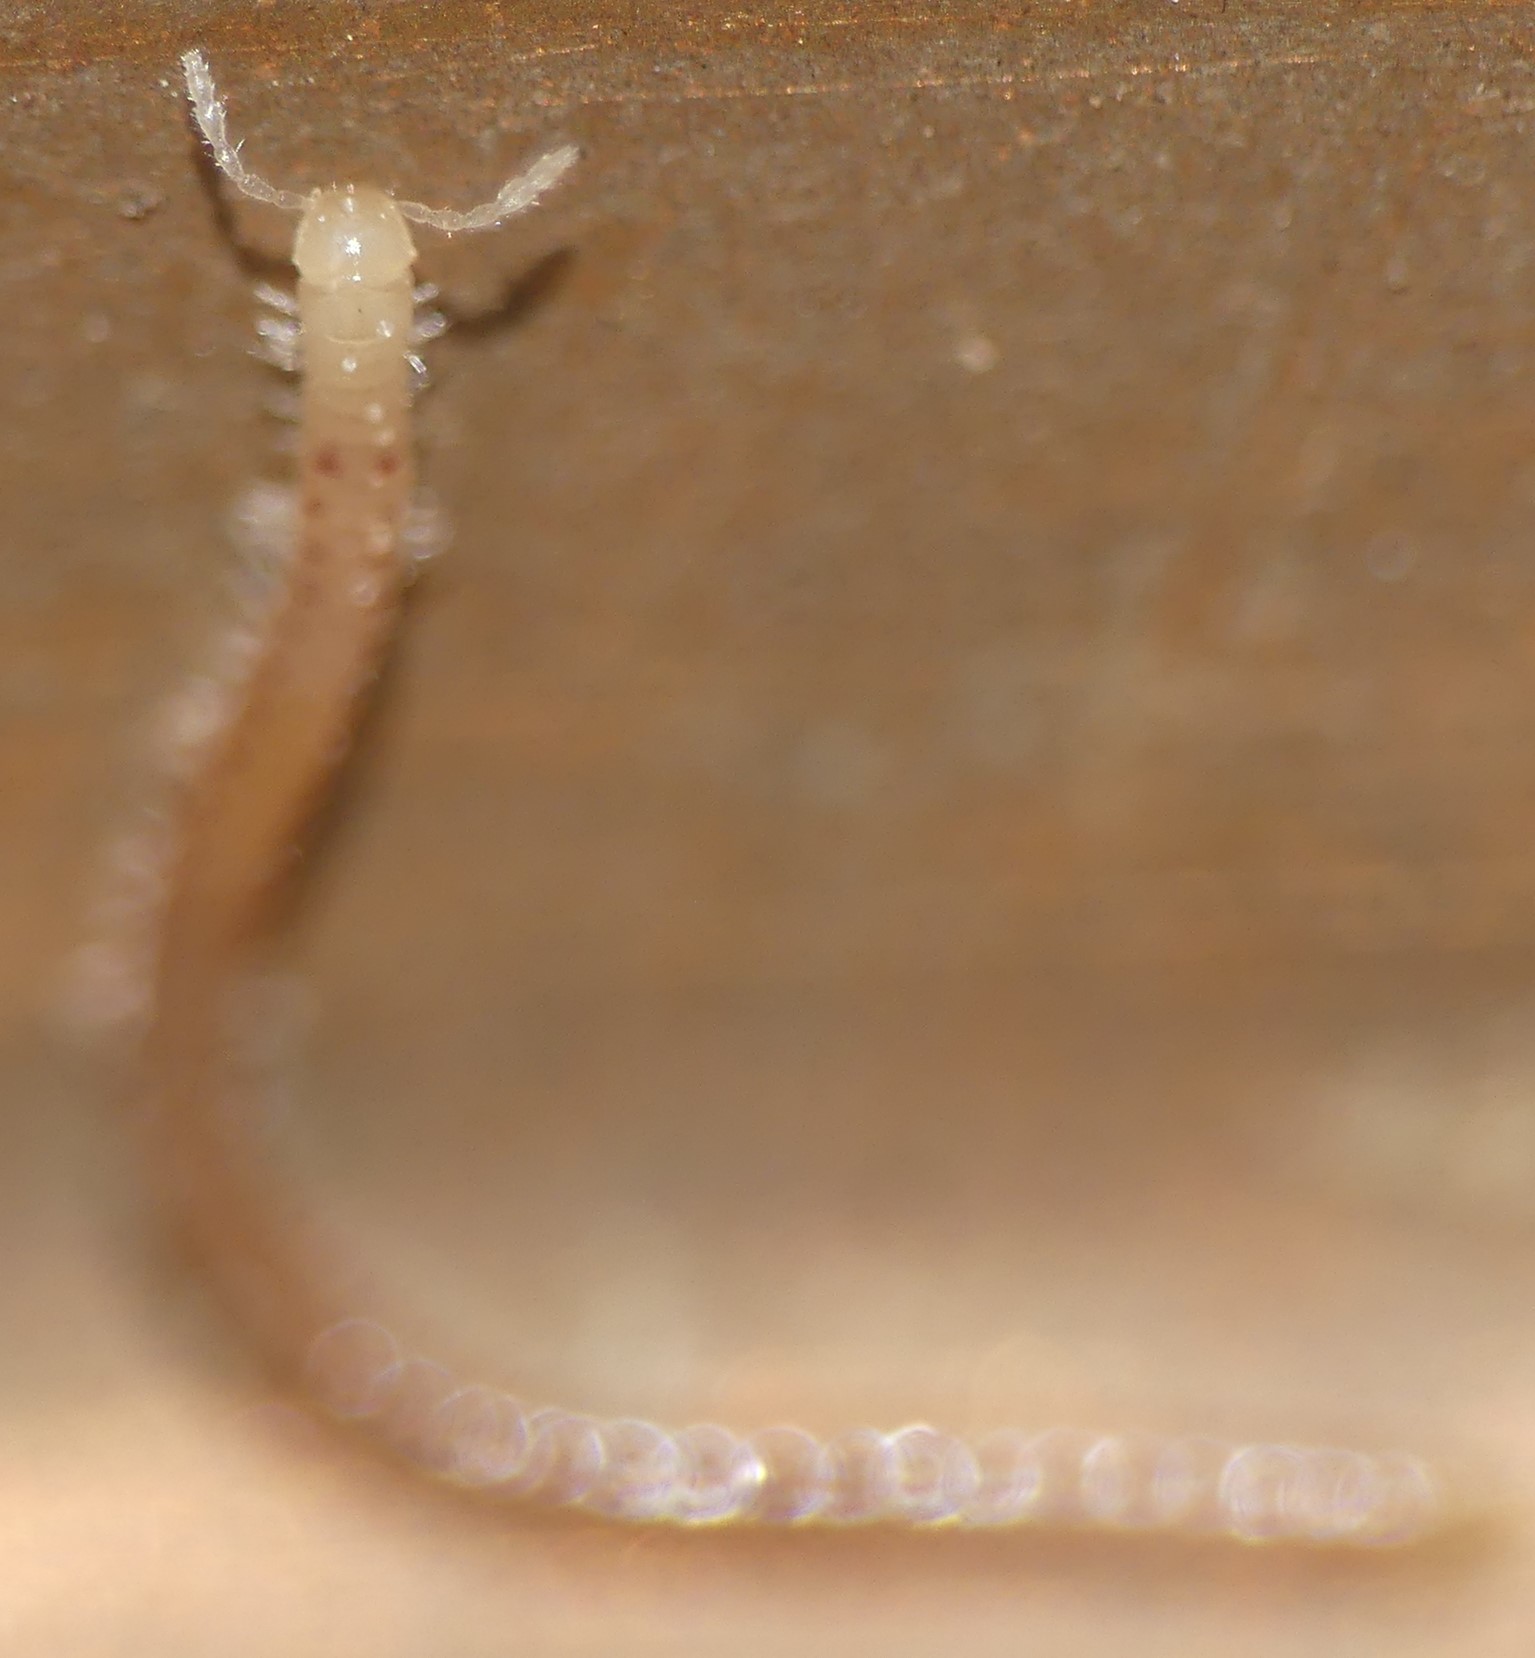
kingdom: Animalia
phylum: Arthropoda
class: Diplopoda
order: Julida
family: Blaniulidae
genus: Blaniulus
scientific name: Blaniulus guttulatus
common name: Spotted snake millipede
